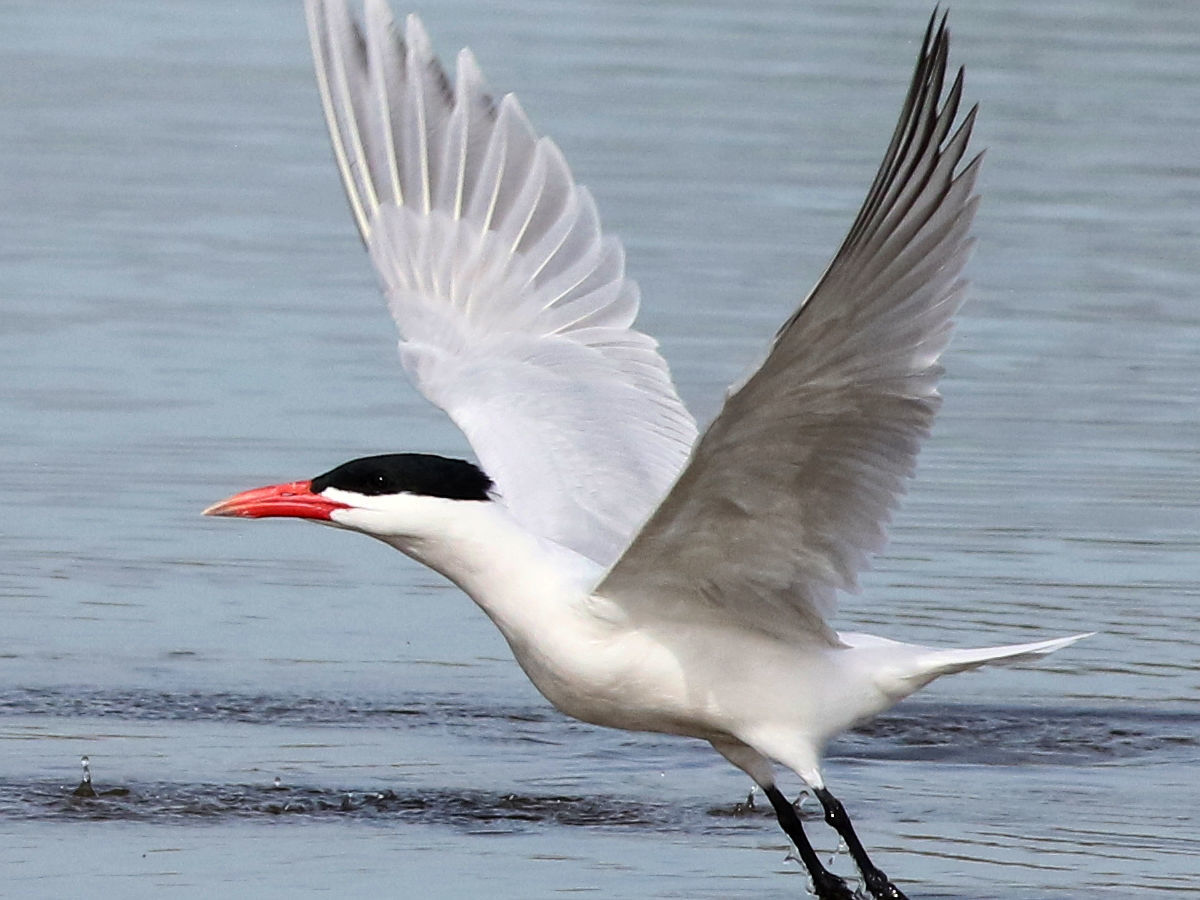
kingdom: Animalia
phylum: Chordata
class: Aves
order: Charadriiformes
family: Laridae
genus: Hydroprogne
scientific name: Hydroprogne caspia
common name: Caspian tern
